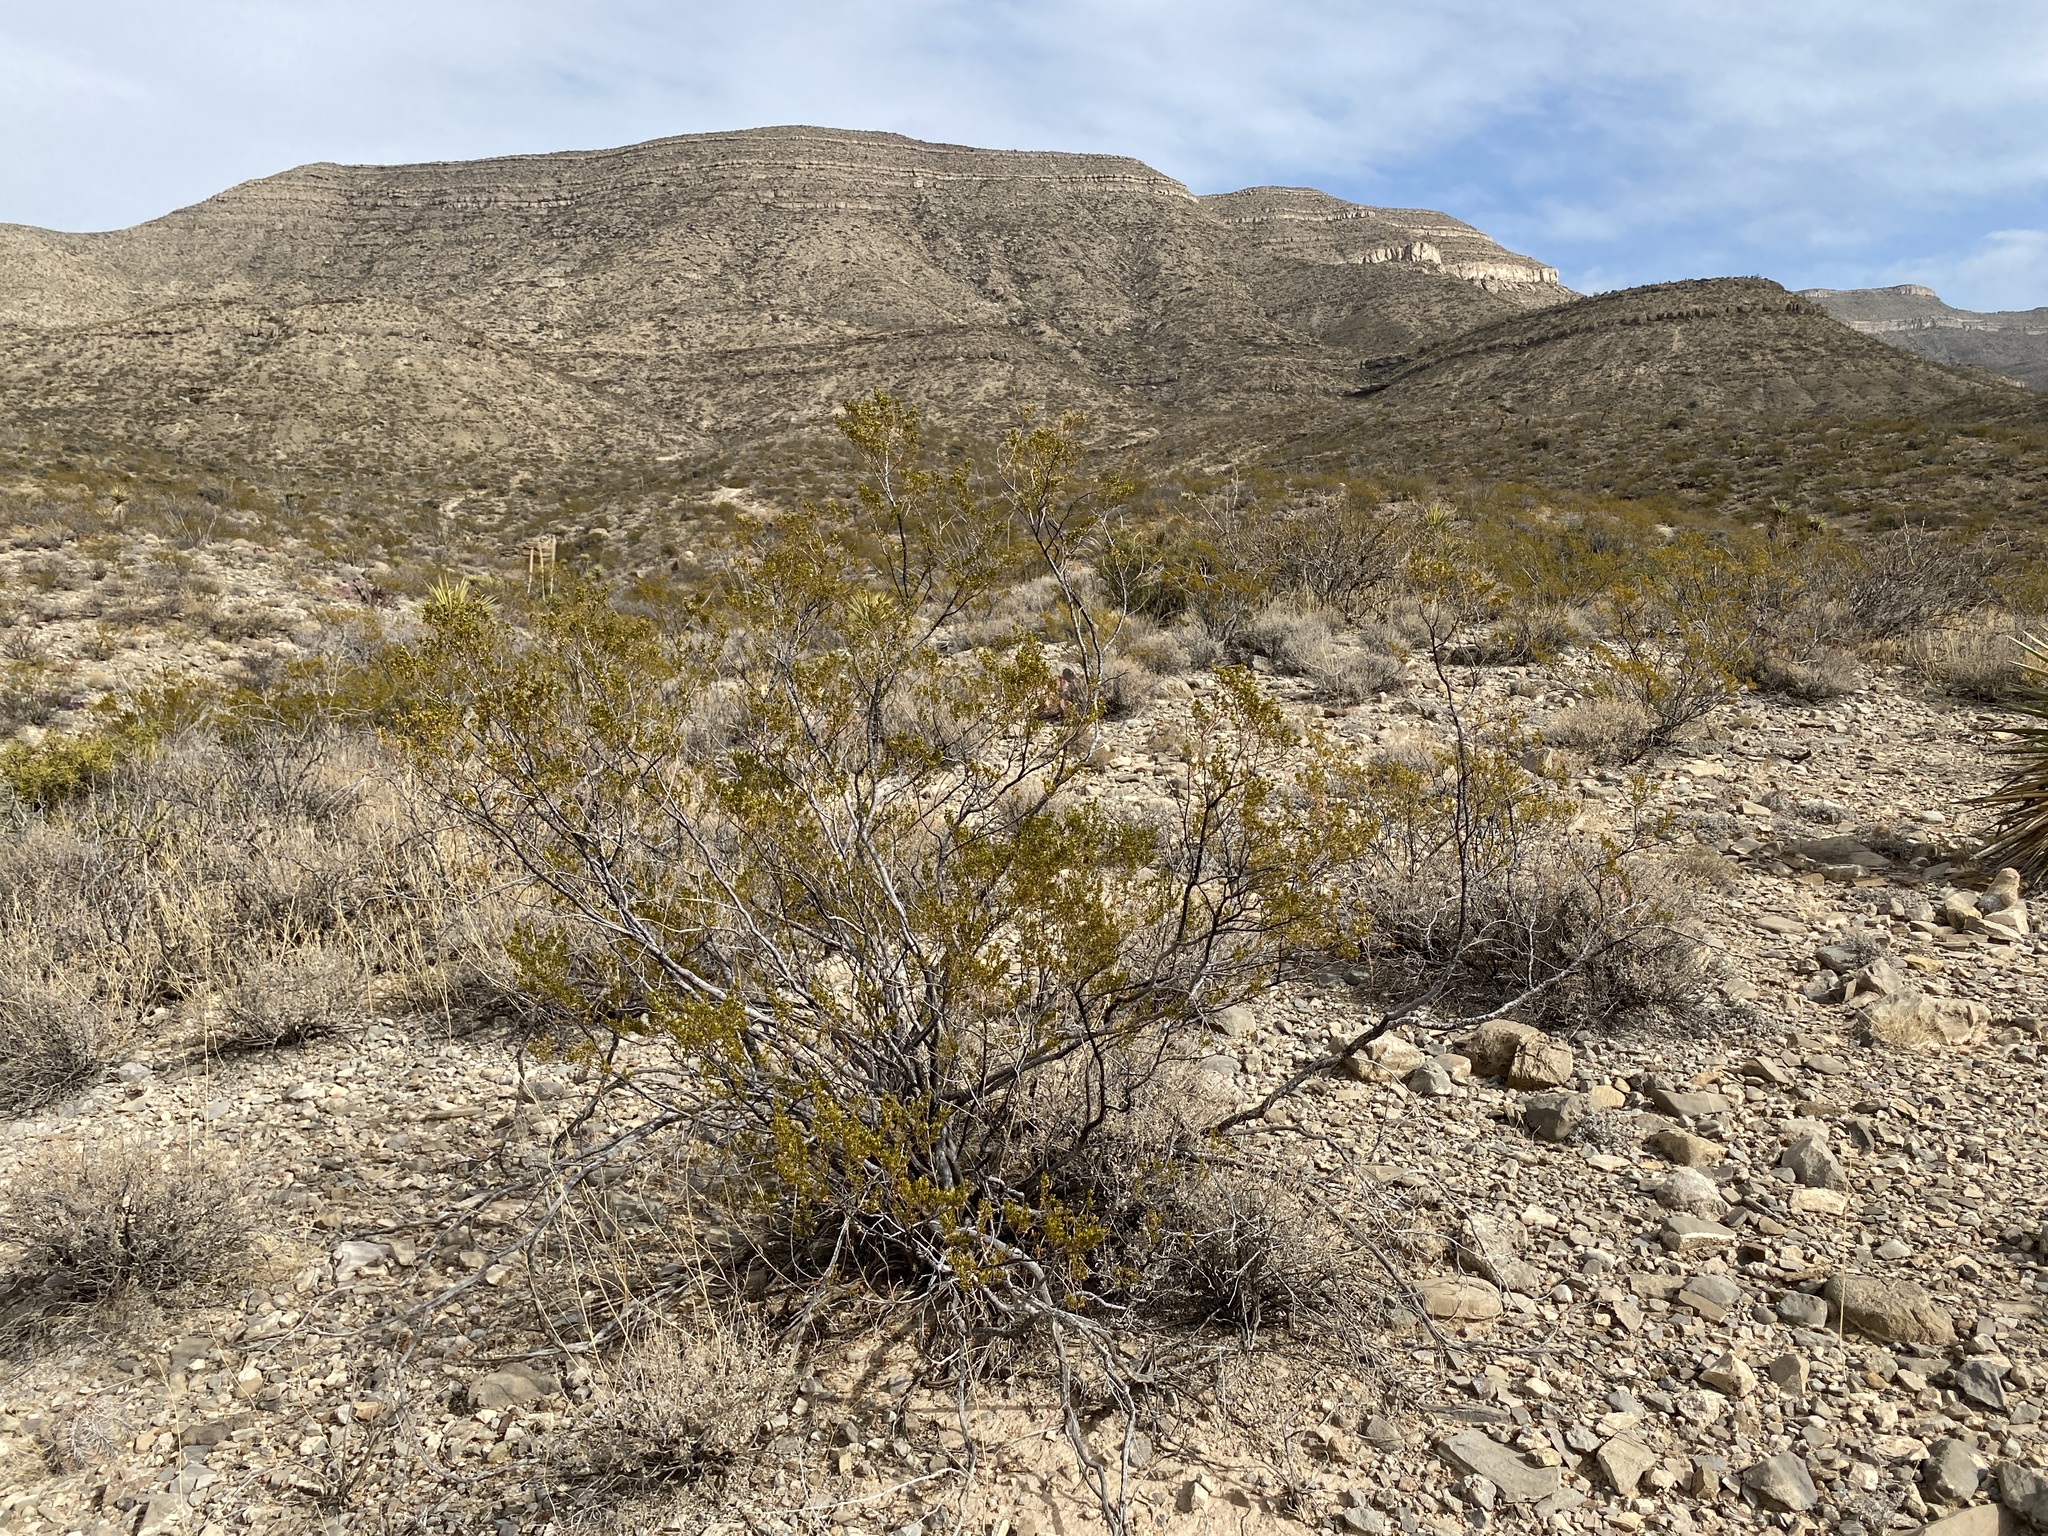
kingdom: Plantae
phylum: Tracheophyta
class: Magnoliopsida
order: Zygophyllales
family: Zygophyllaceae
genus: Larrea
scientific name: Larrea tridentata
